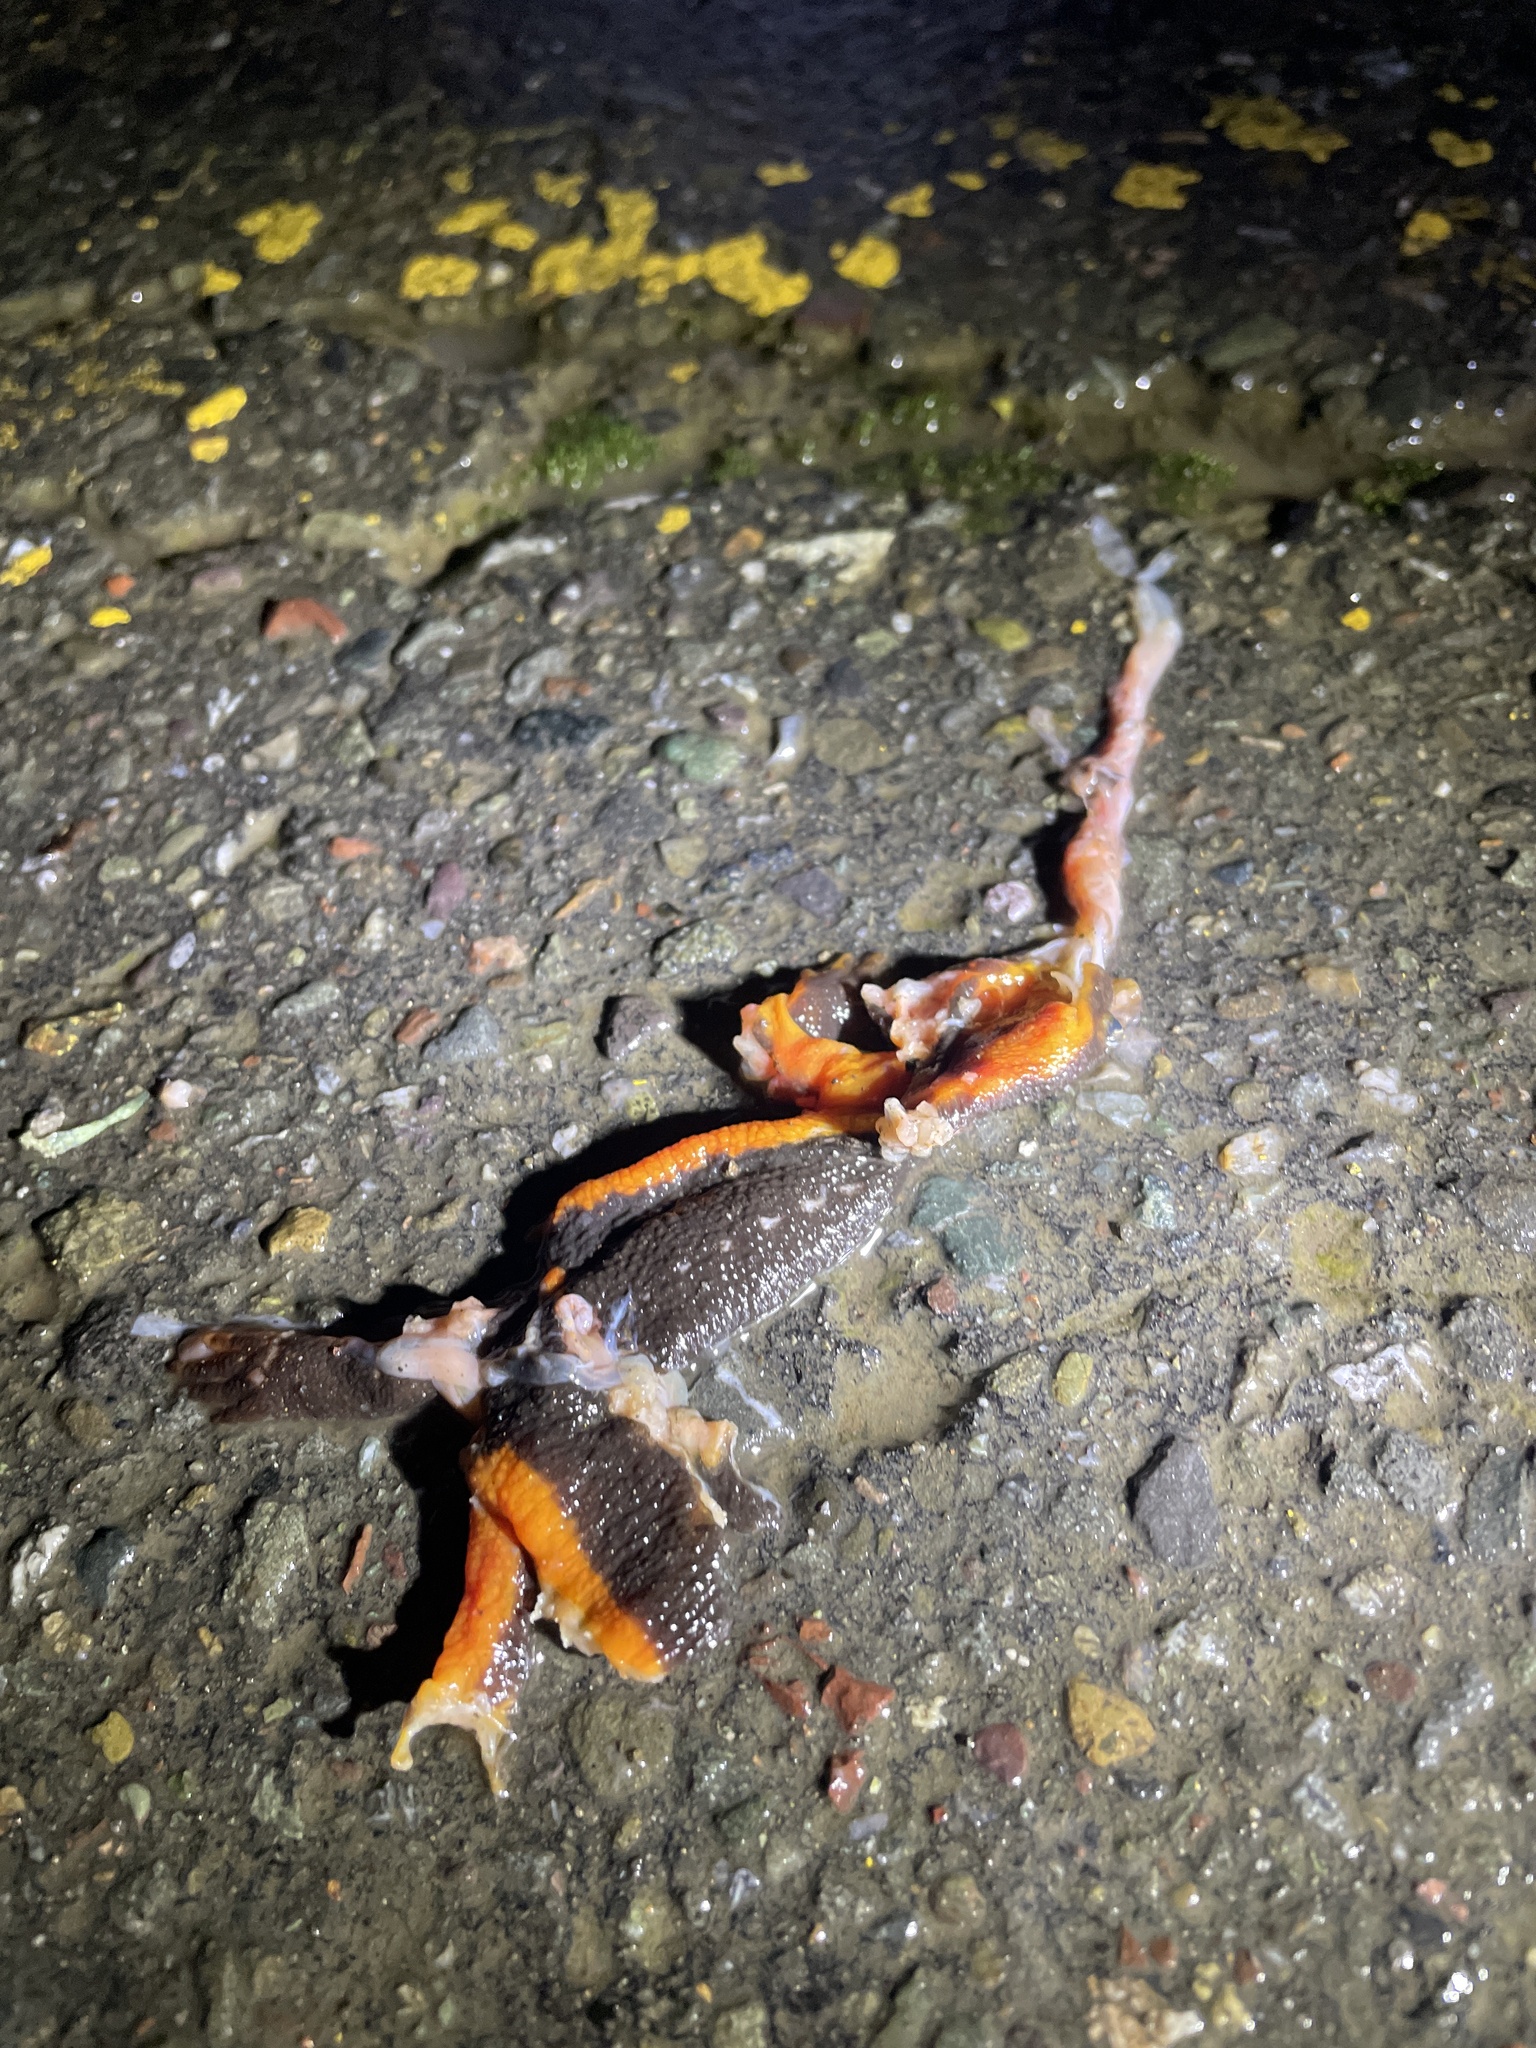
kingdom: Animalia
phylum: Chordata
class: Amphibia
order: Caudata
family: Salamandridae
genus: Taricha
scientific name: Taricha
